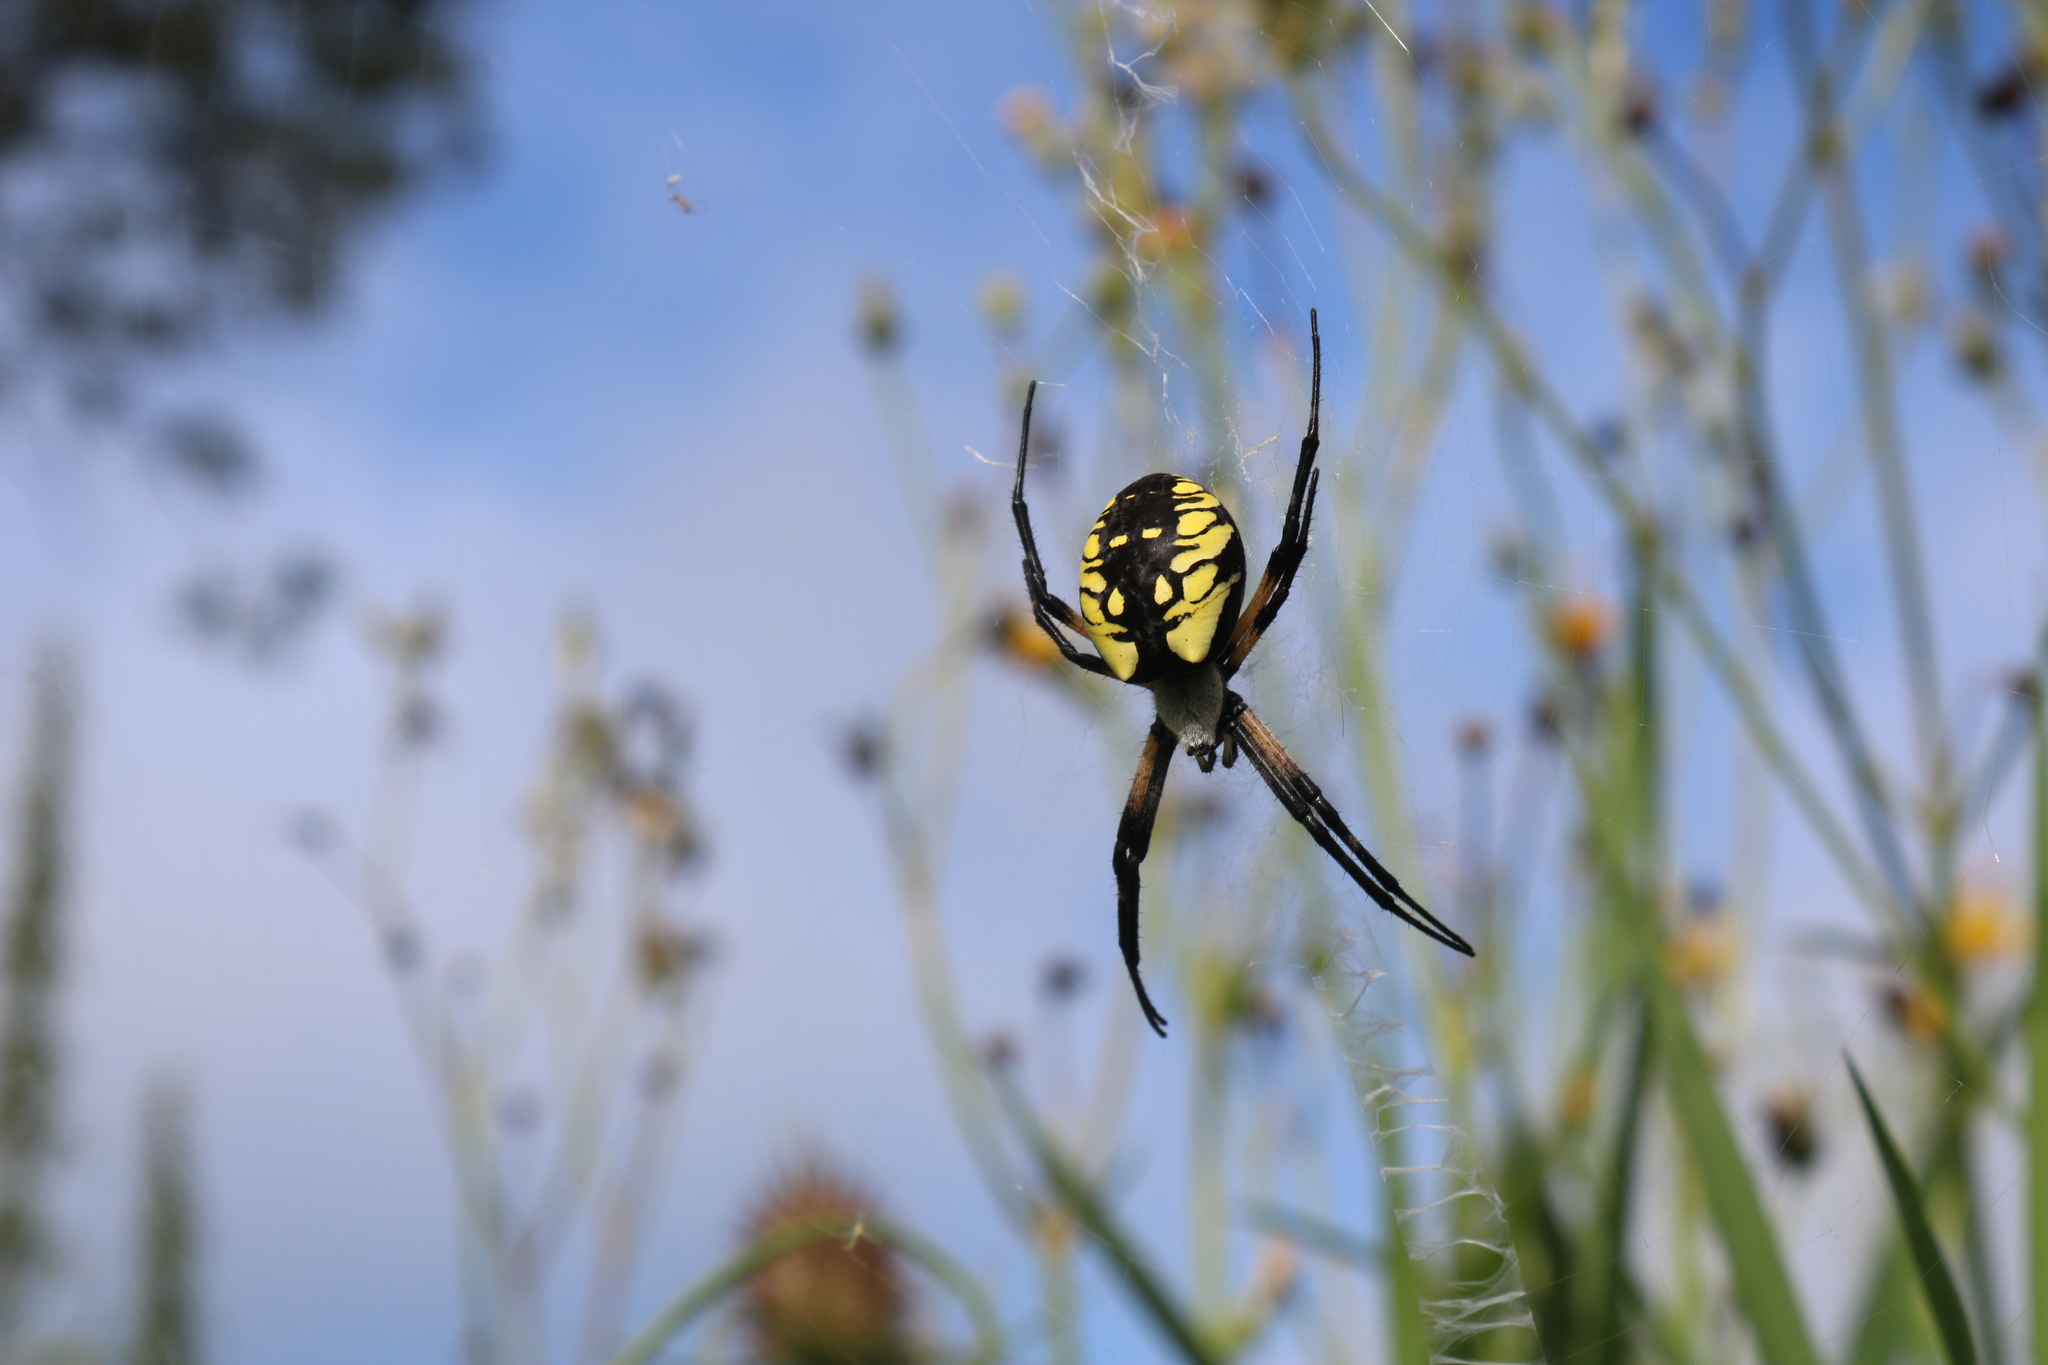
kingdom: Animalia
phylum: Arthropoda
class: Arachnida
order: Araneae
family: Araneidae
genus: Argiope
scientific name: Argiope aurantia
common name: Orb weavers
